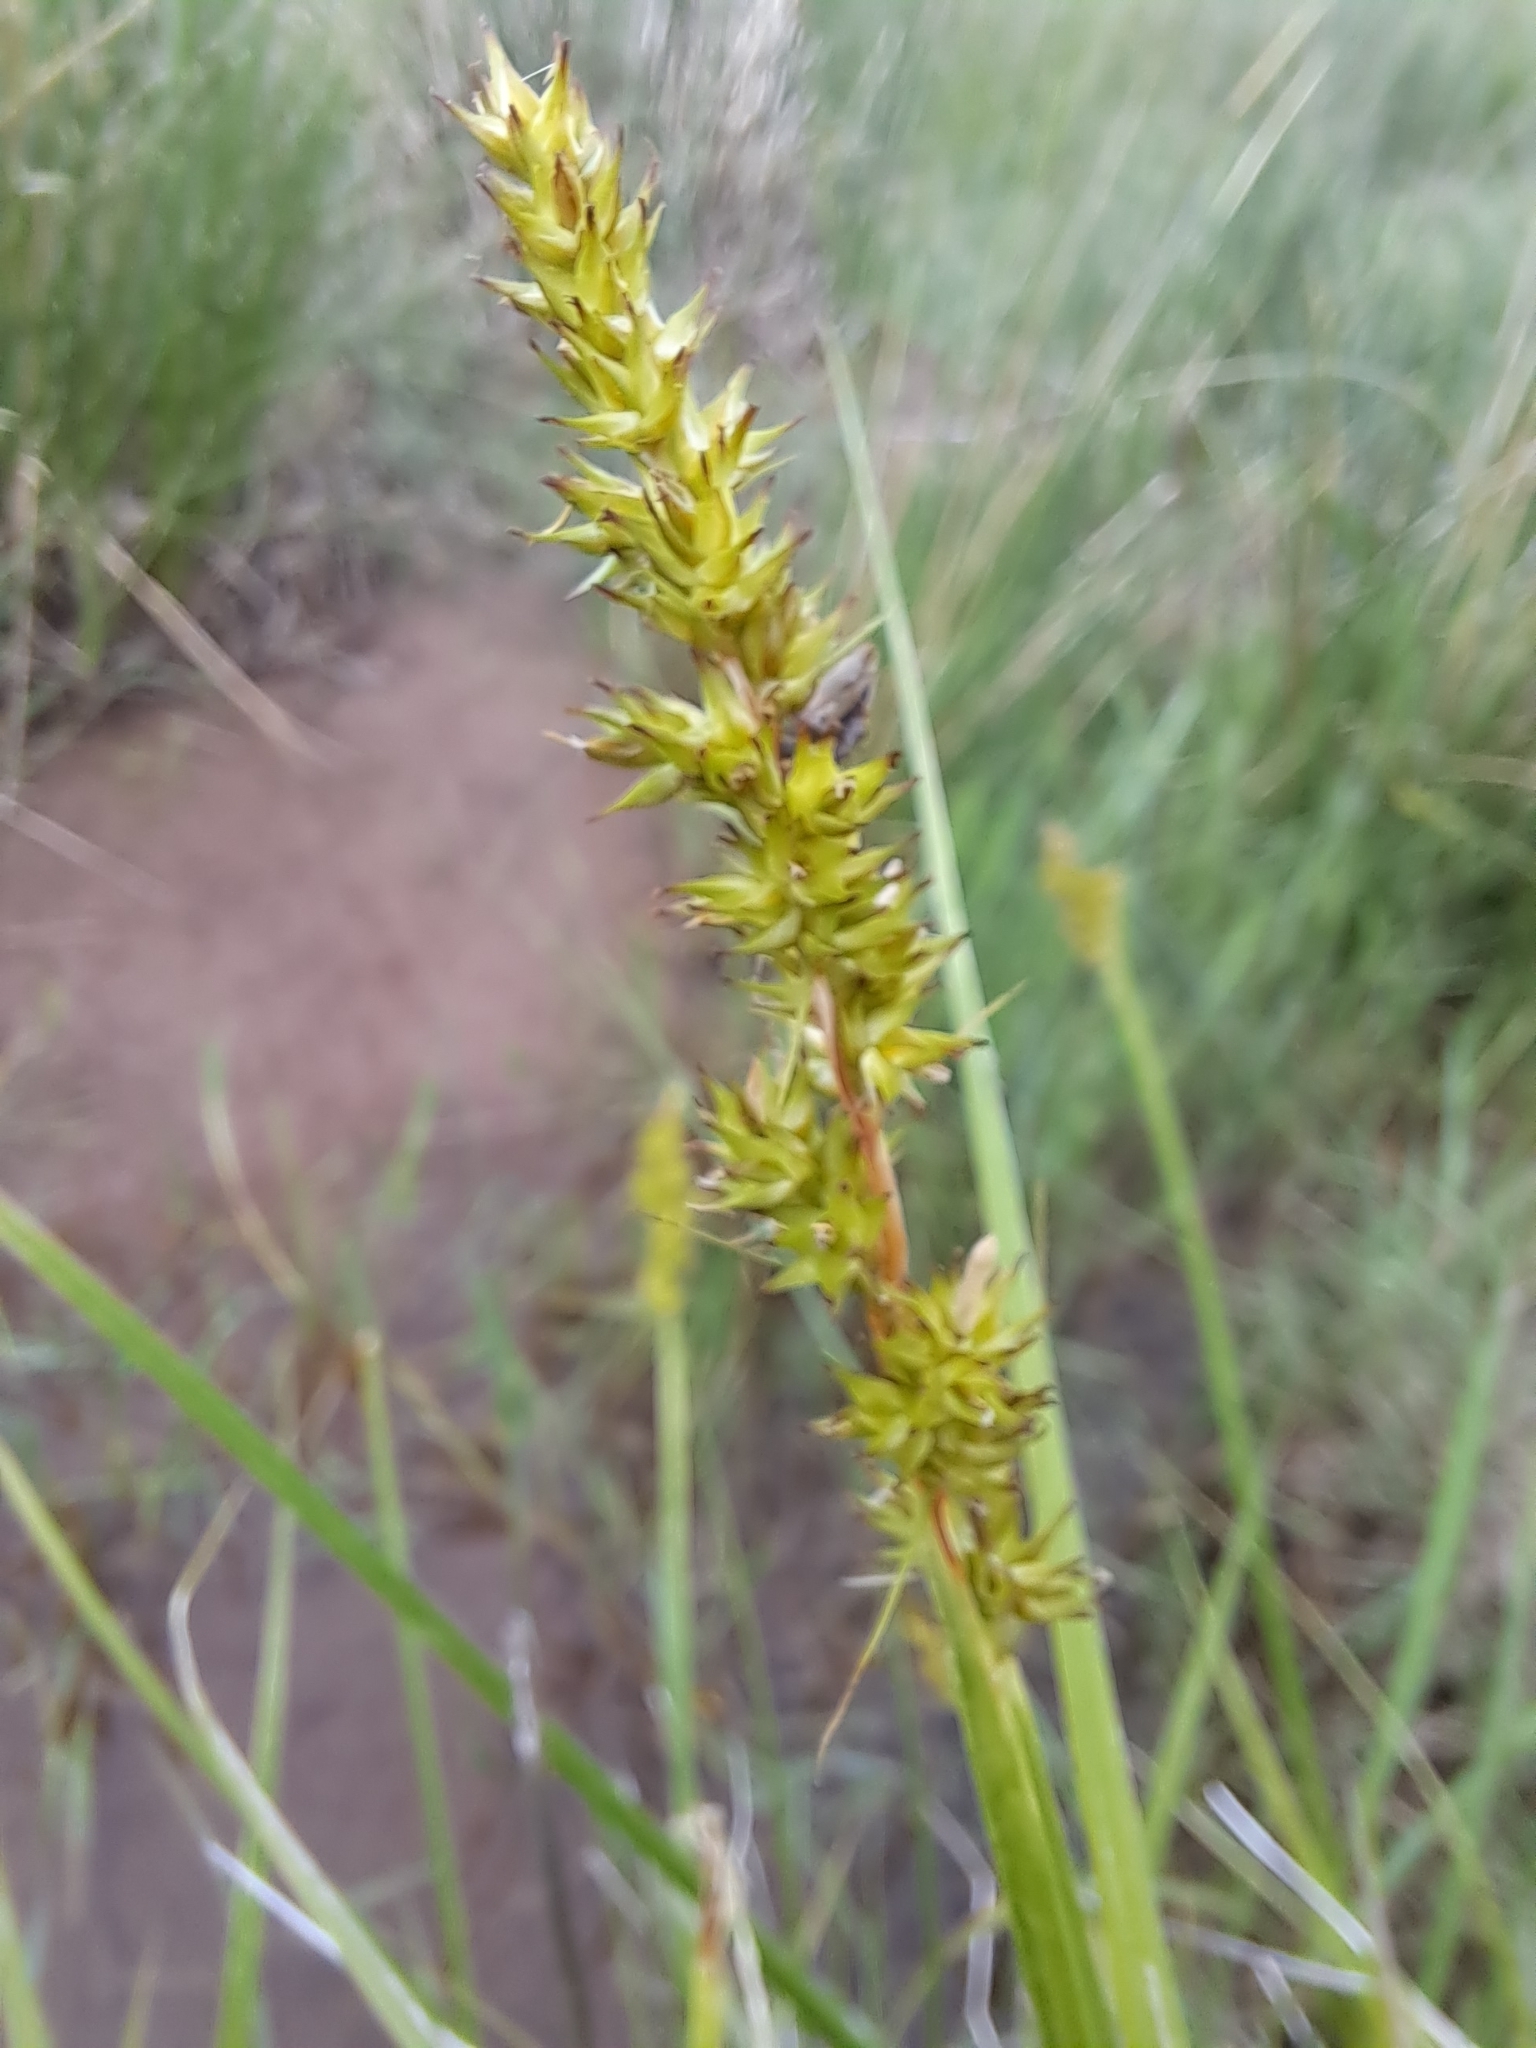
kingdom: Plantae
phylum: Tracheophyta
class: Liliopsida
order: Poales
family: Cyperaceae
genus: Carex
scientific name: Carex stipata
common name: Awl-fruited sedge
